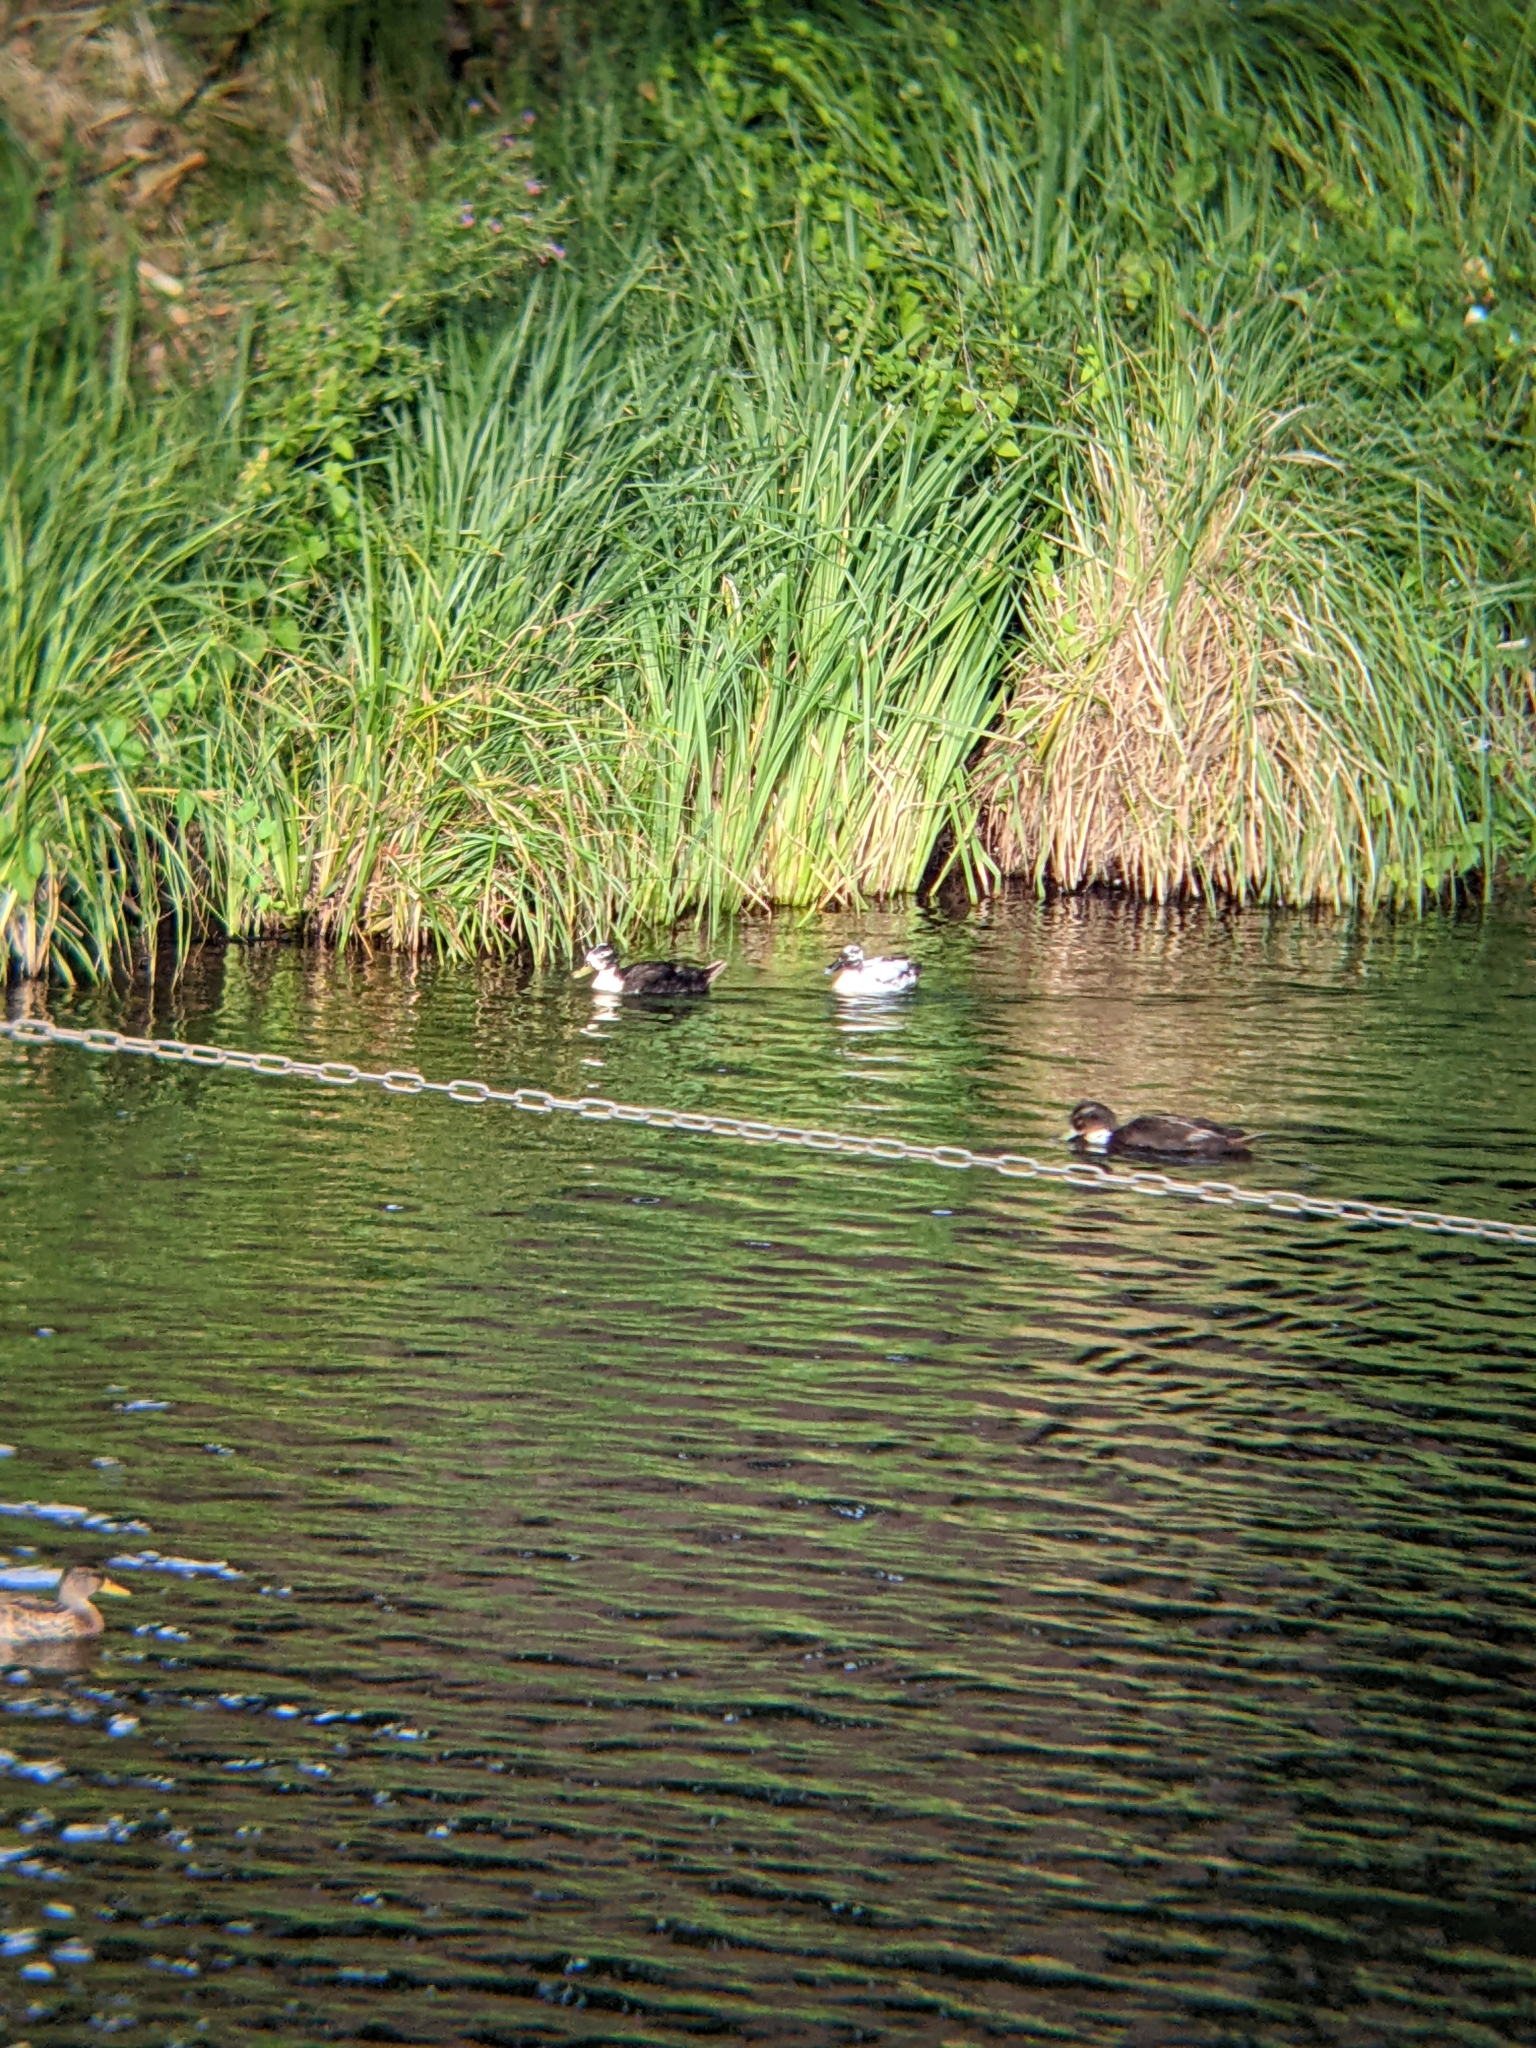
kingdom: Animalia
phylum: Chordata
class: Aves
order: Anseriformes
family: Anatidae
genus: Anas
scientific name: Anas platyrhynchos
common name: Mallard
